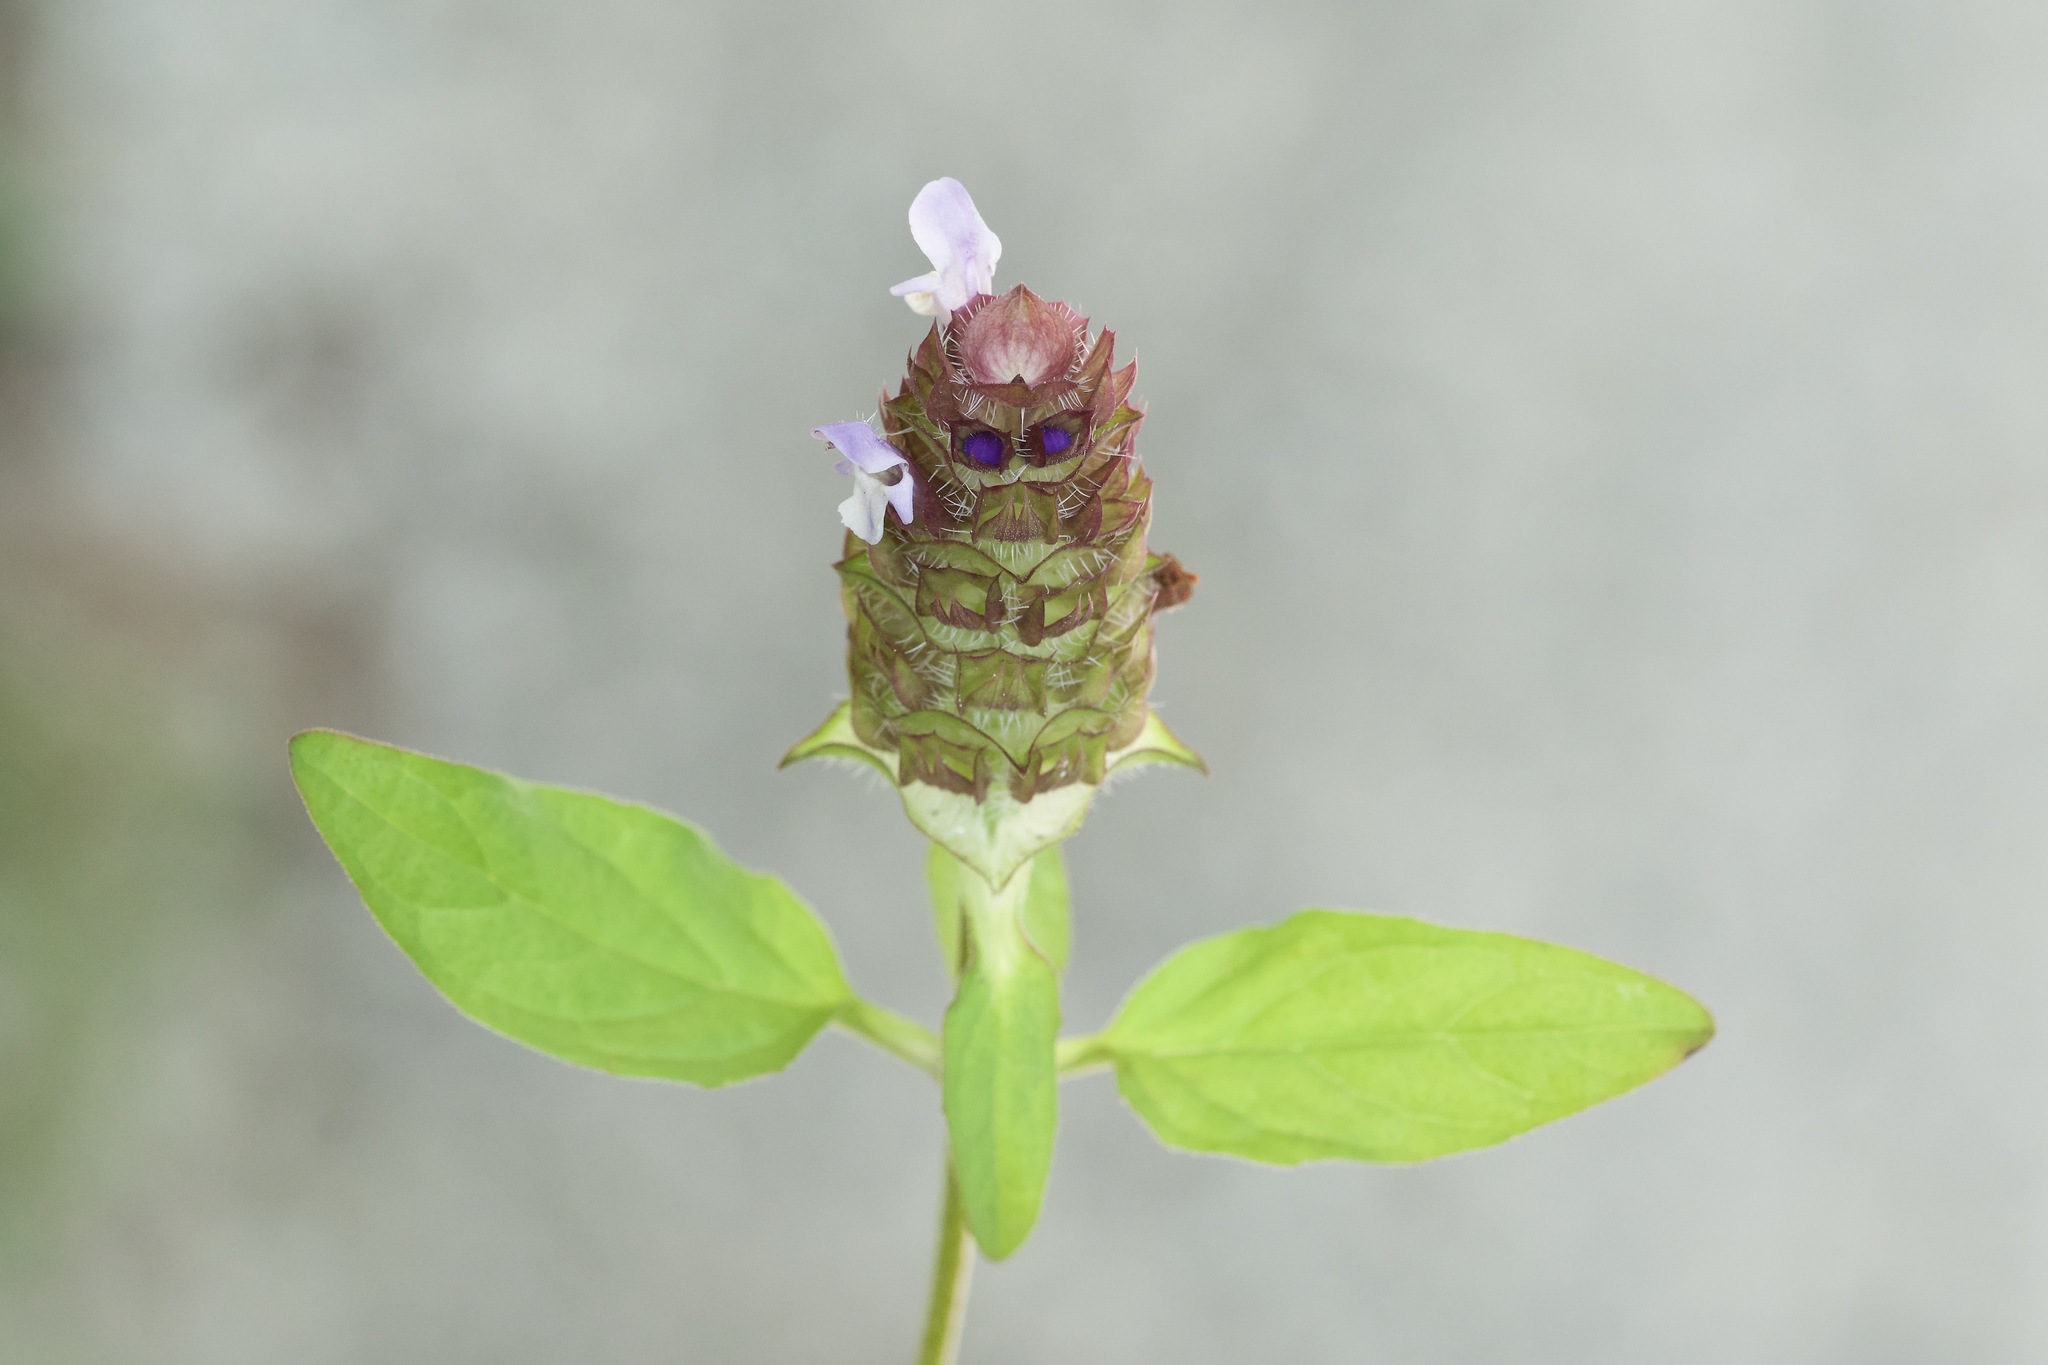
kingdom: Plantae
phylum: Tracheophyta
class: Magnoliopsida
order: Lamiales
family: Lamiaceae
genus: Prunella
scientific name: Prunella vulgaris
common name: Heal-all
